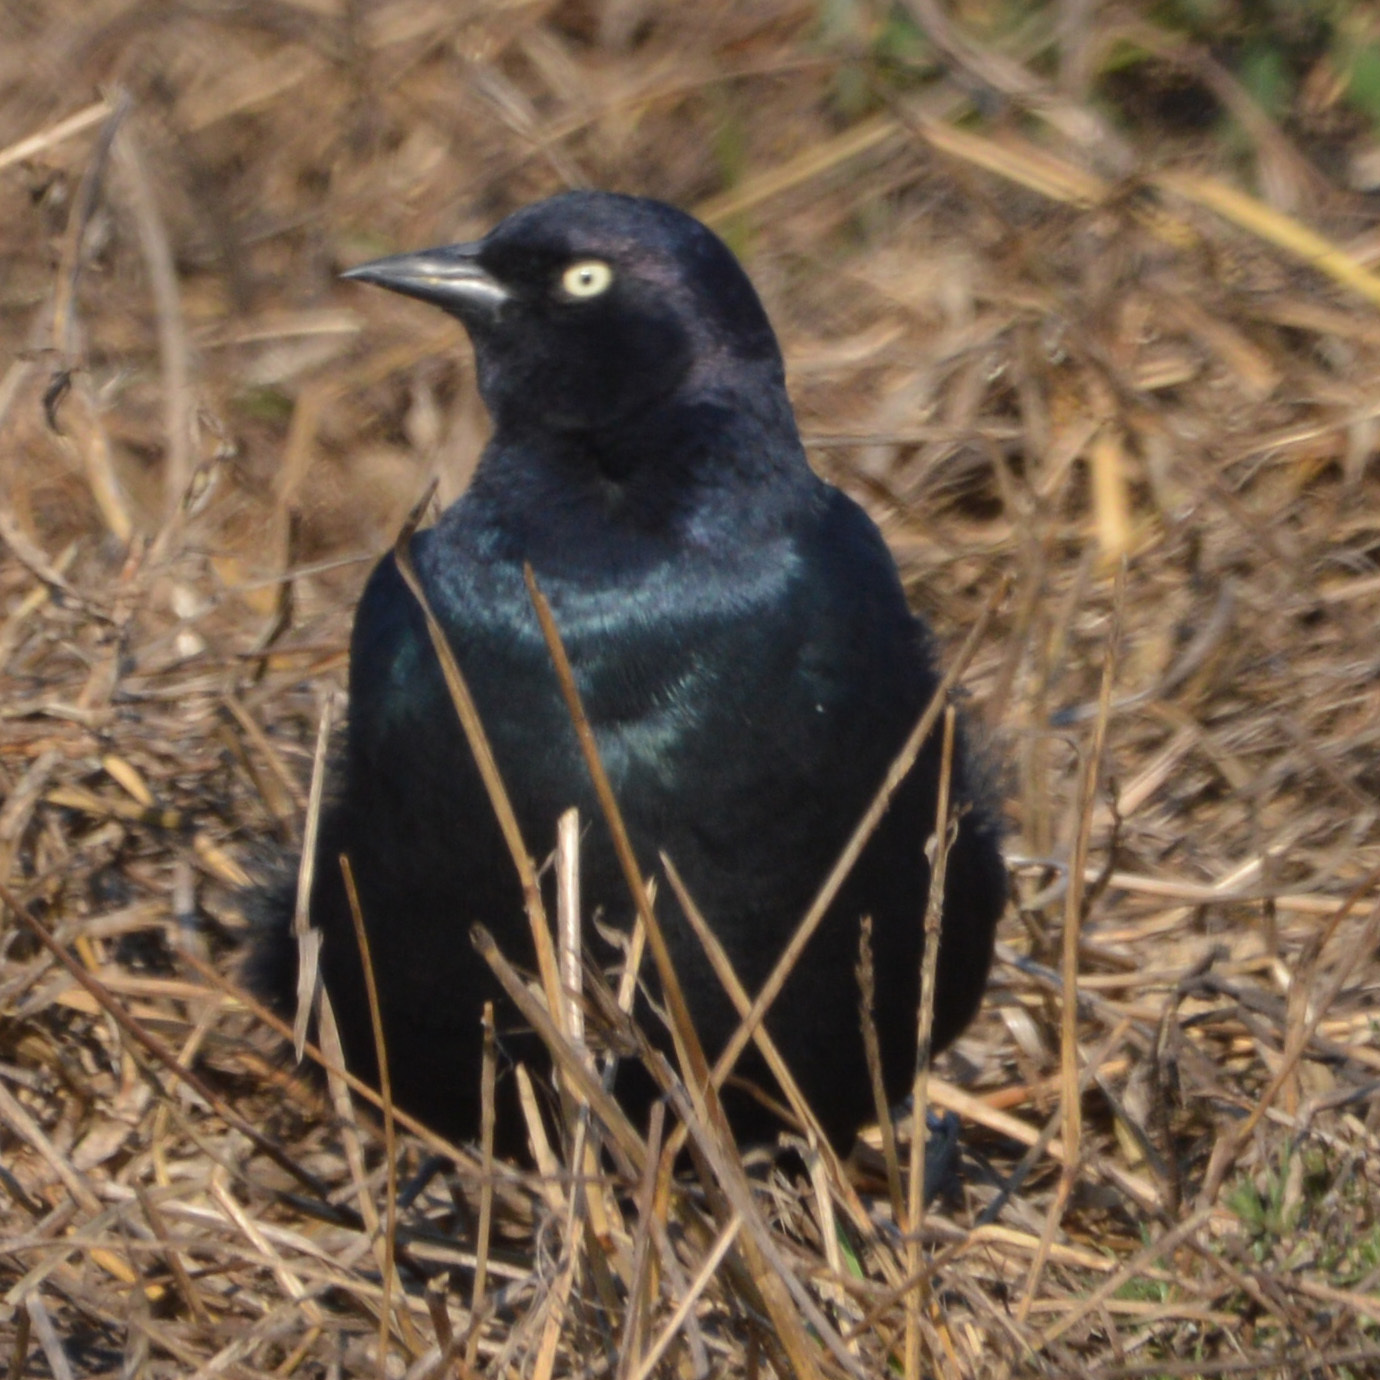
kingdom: Animalia
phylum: Chordata
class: Aves
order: Passeriformes
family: Icteridae
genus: Euphagus
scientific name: Euphagus cyanocephalus
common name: Brewer's blackbird
